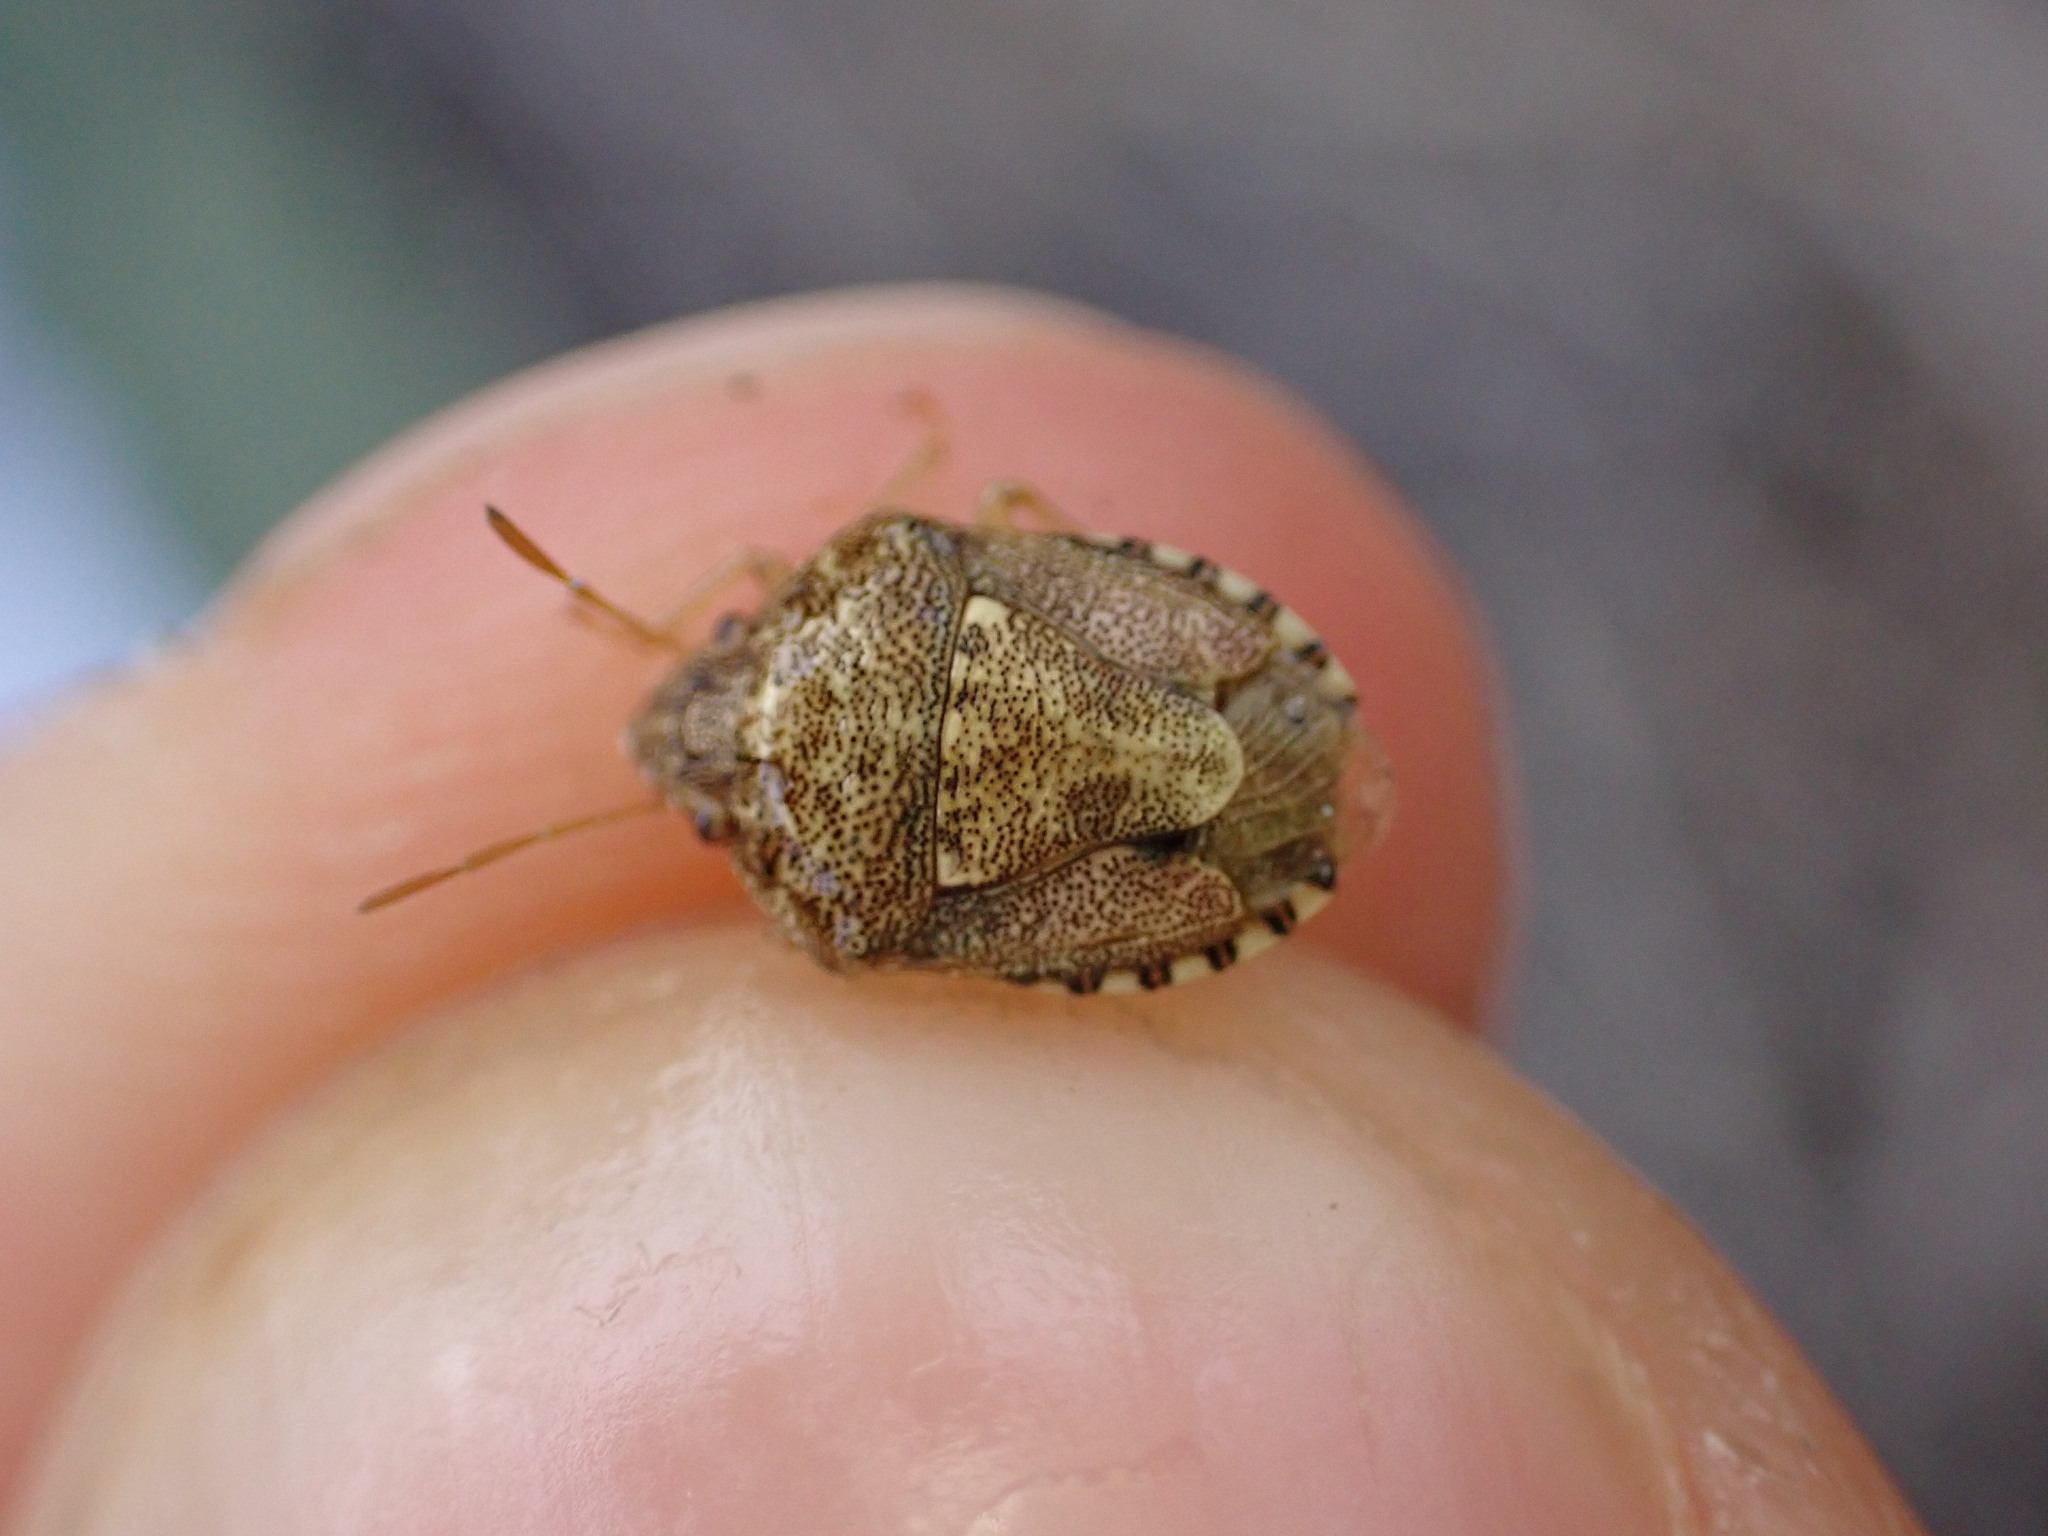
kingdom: Animalia
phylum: Arthropoda
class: Insecta
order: Hemiptera
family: Pentatomidae
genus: Staria
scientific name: Staria lunata
